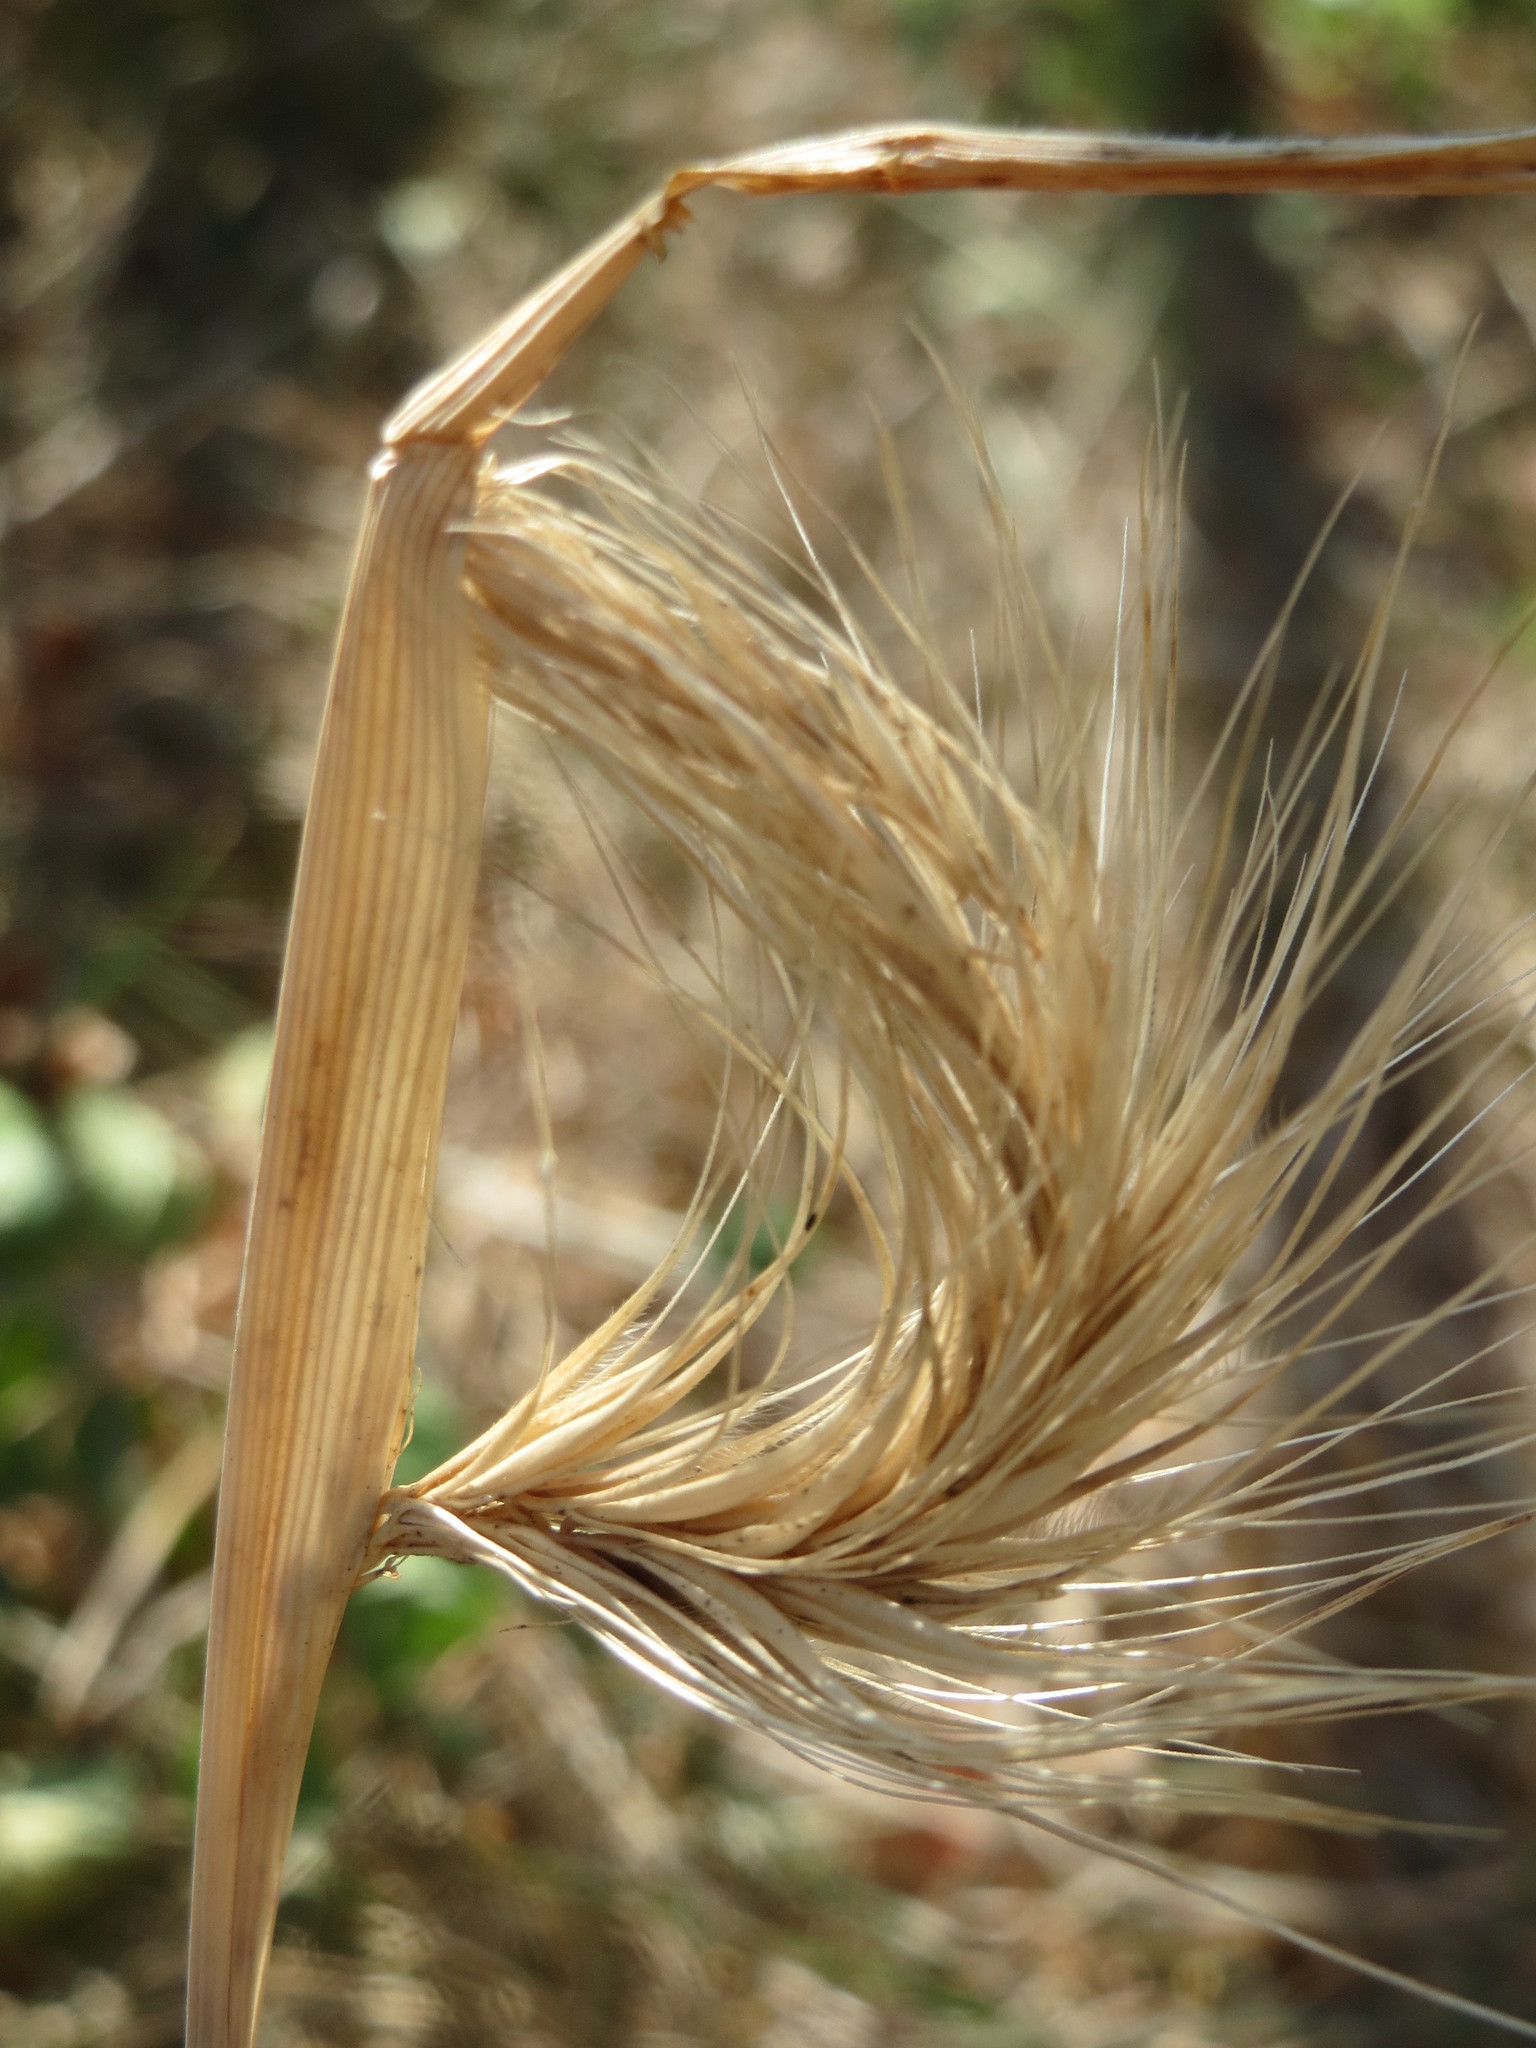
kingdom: Plantae
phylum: Tracheophyta
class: Liliopsida
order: Poales
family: Poaceae
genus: Hordeum
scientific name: Hordeum murinum
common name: Wall barley
